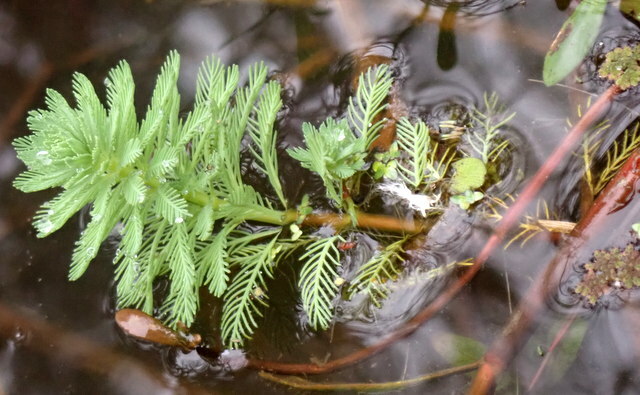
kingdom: Plantae
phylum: Tracheophyta
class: Magnoliopsida
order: Saxifragales
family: Haloragaceae
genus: Myriophyllum
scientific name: Myriophyllum aquaticum
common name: Parrot's feather
